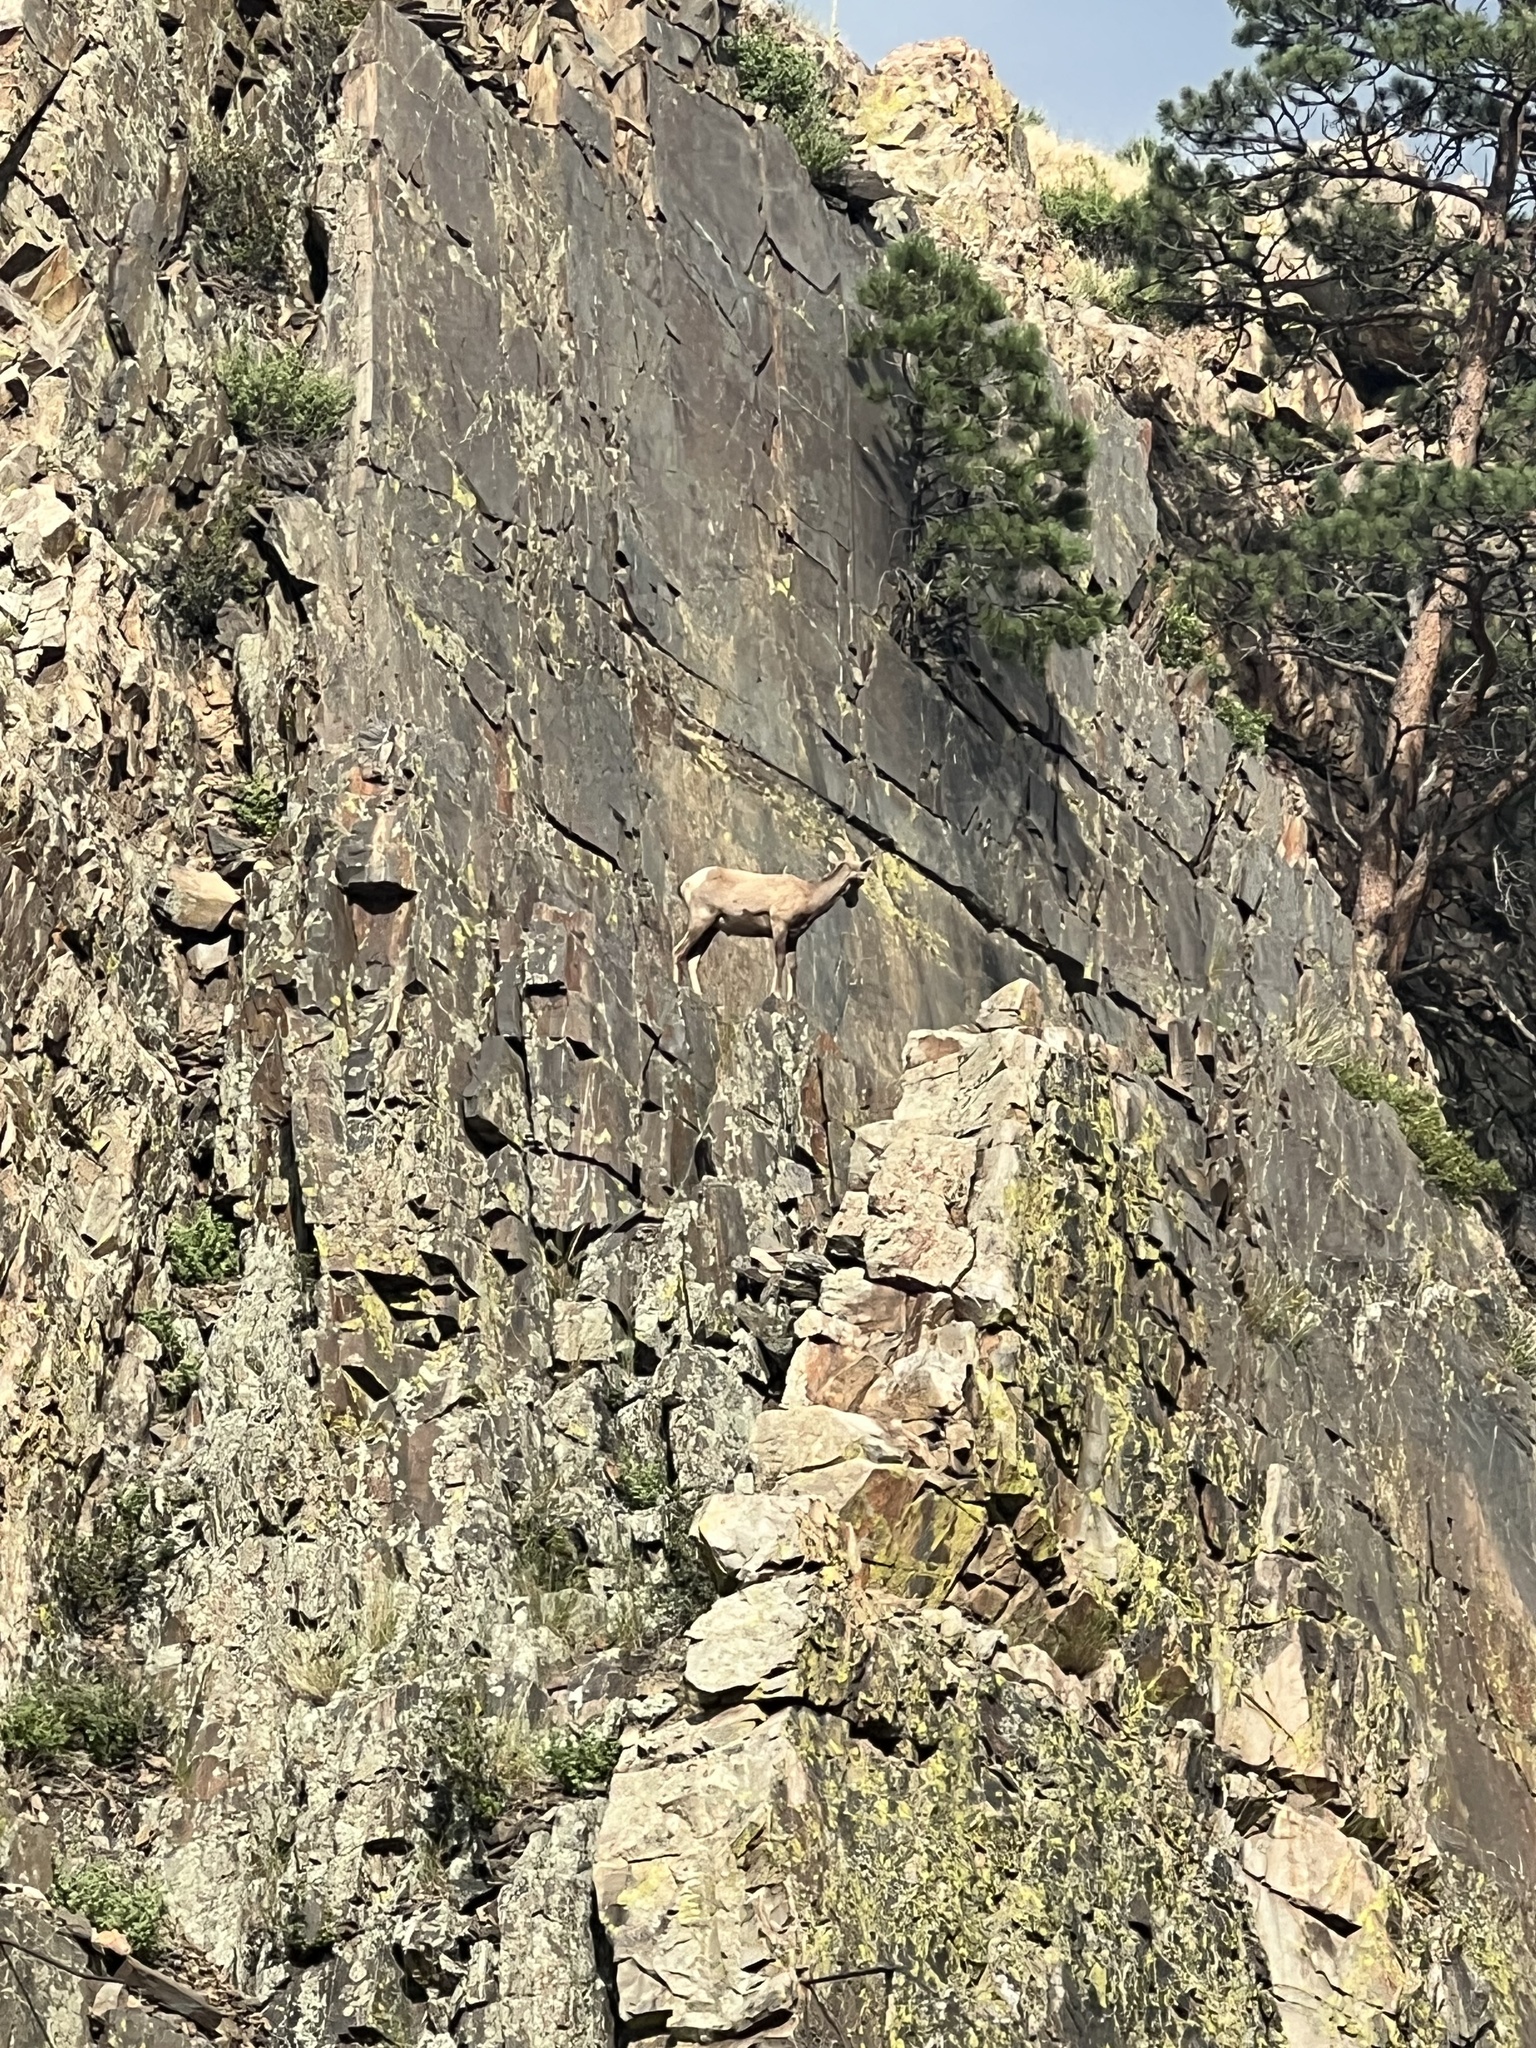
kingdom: Animalia
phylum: Chordata
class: Mammalia
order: Artiodactyla
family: Bovidae
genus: Ovis
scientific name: Ovis canadensis
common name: Bighorn sheep
